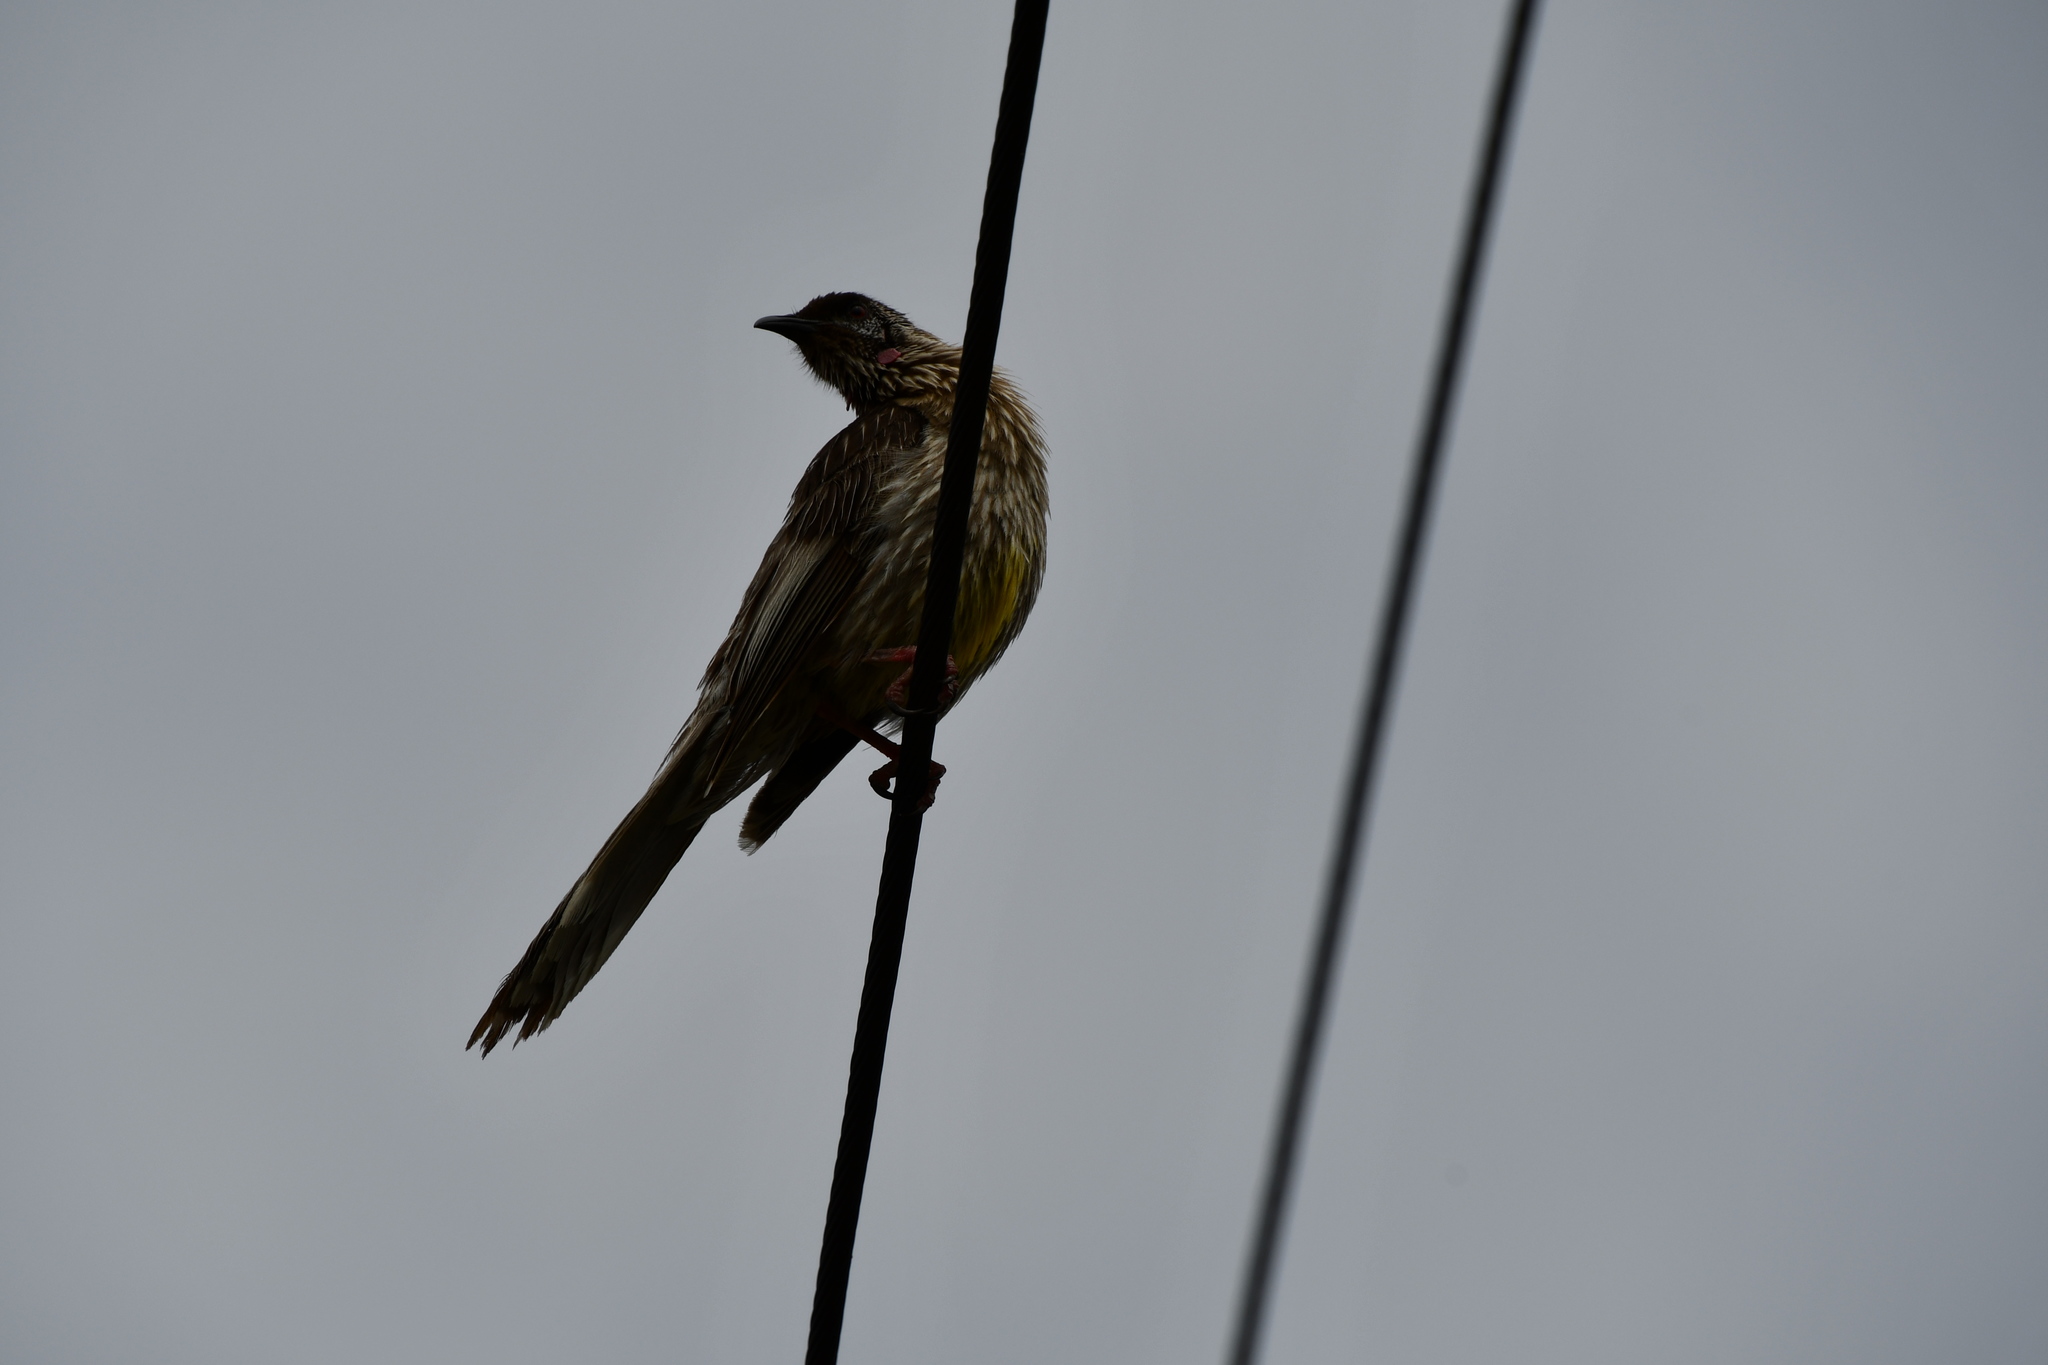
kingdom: Animalia
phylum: Chordata
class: Aves
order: Passeriformes
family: Meliphagidae
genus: Anthochaera
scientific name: Anthochaera carunculata
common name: Red wattlebird
